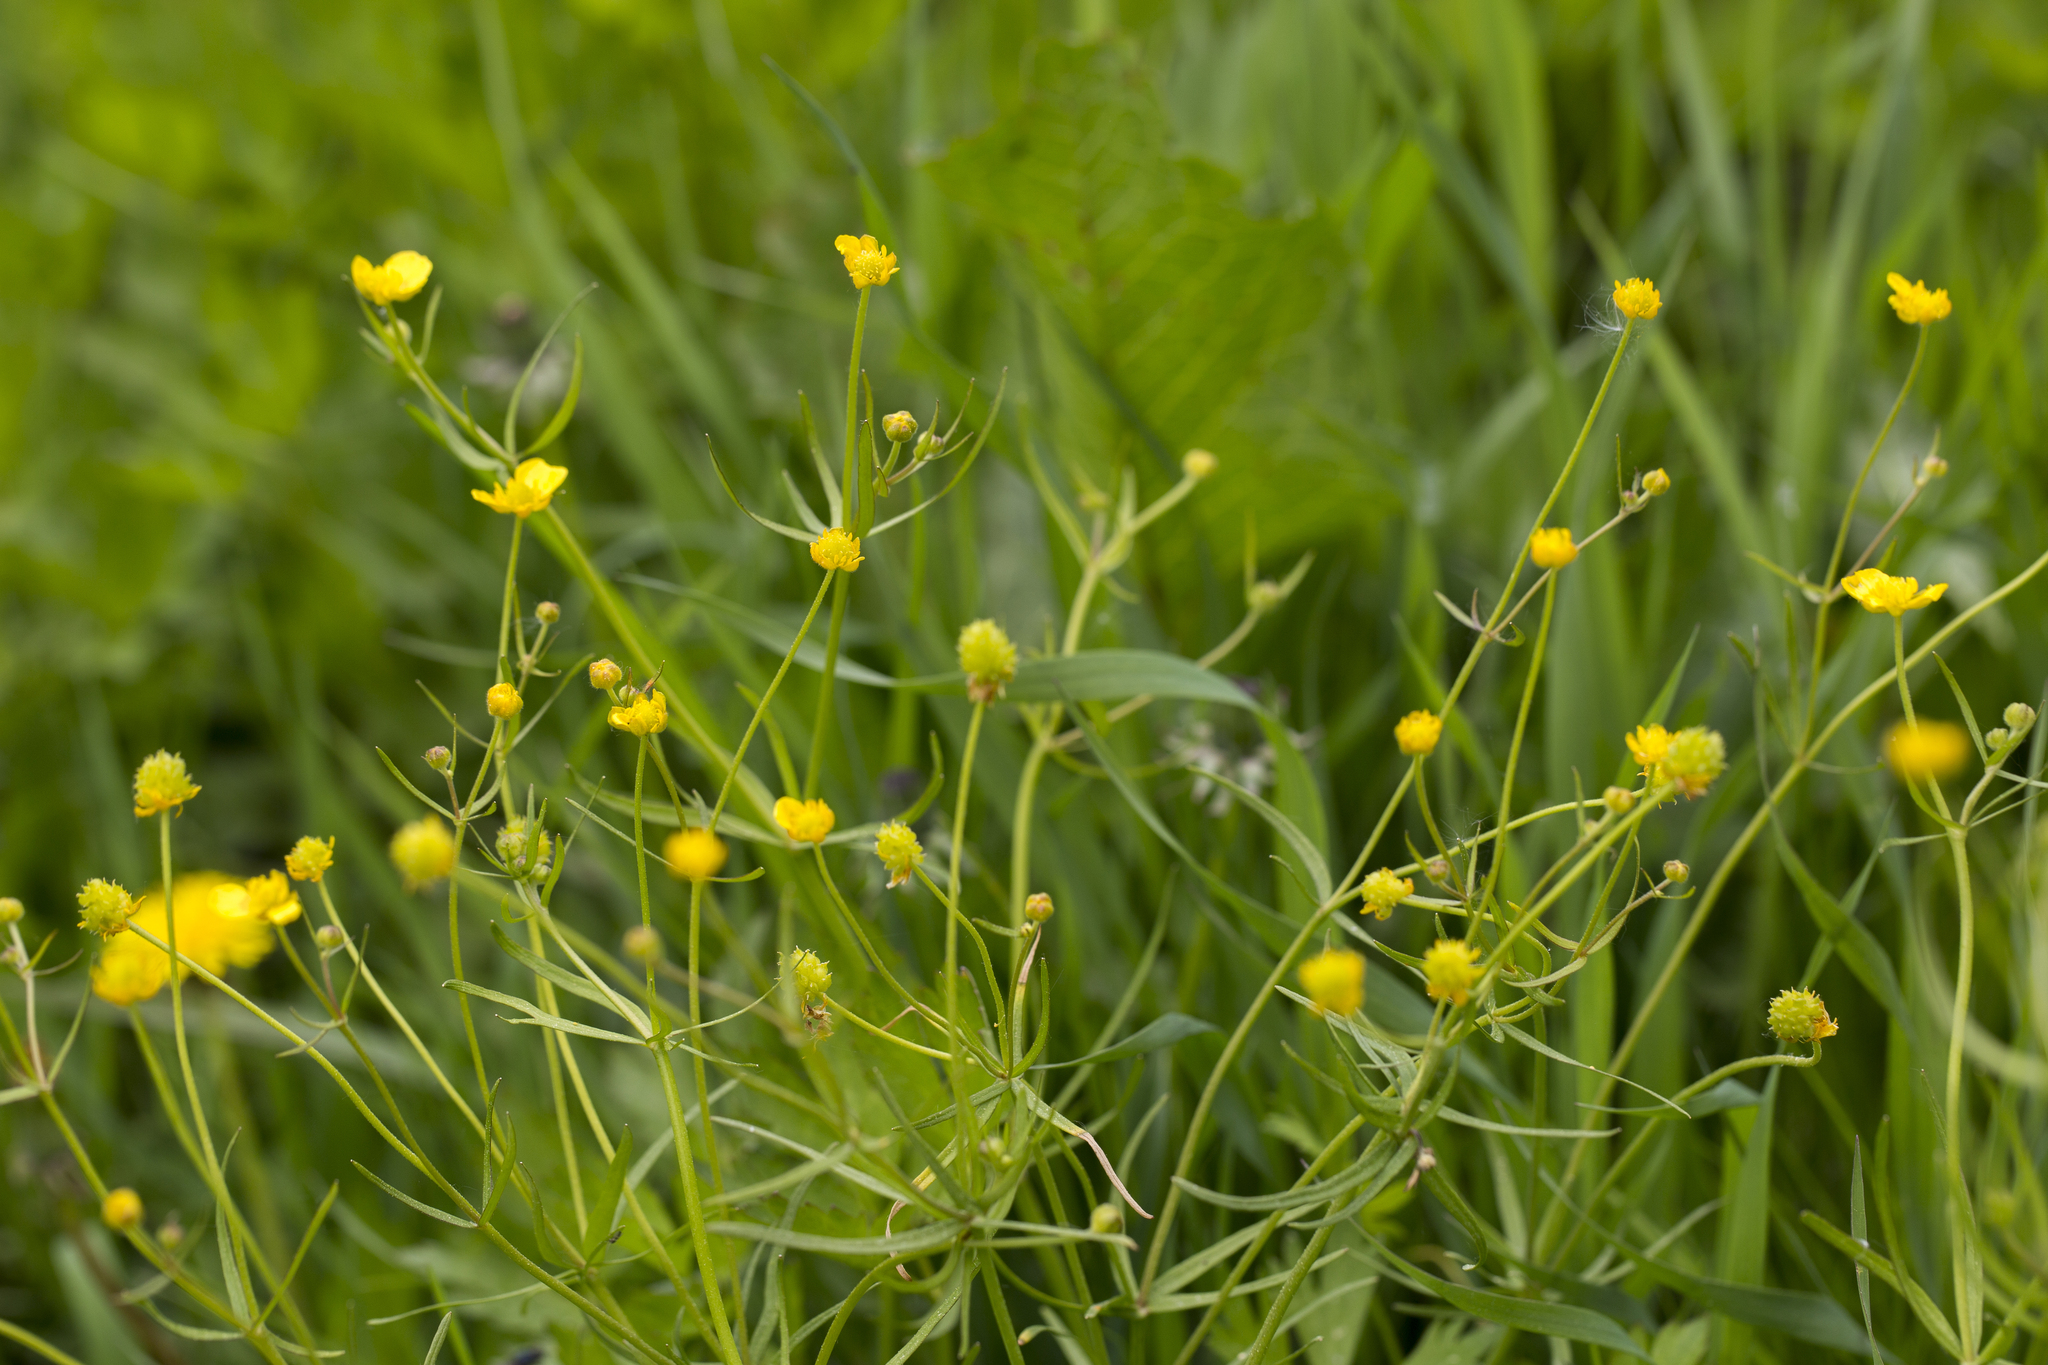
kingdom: Plantae
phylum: Tracheophyta
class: Magnoliopsida
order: Ranunculales
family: Ranunculaceae
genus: Ranunculus
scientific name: Ranunculus auricomus
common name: Goldilocks buttercup
